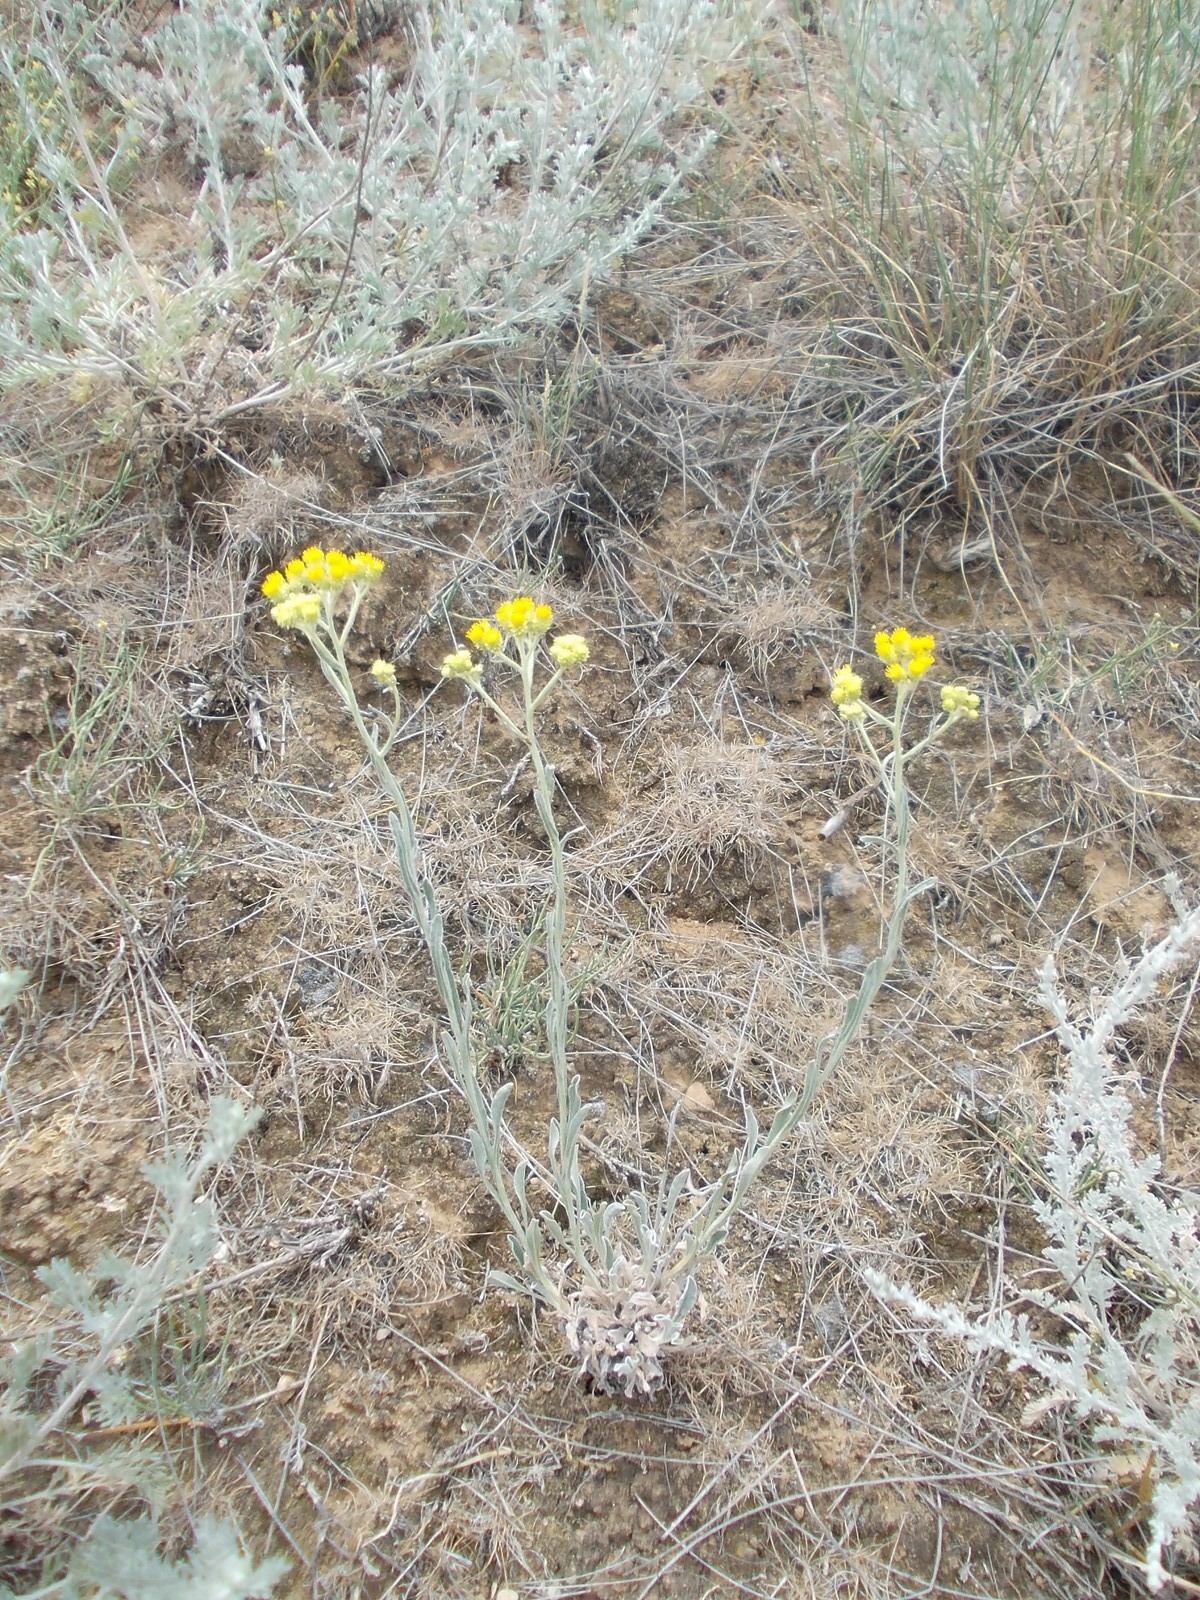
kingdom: Plantae
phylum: Tracheophyta
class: Magnoliopsida
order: Asterales
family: Asteraceae
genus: Helichrysum
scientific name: Helichrysum arenarium
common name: Strawflower
